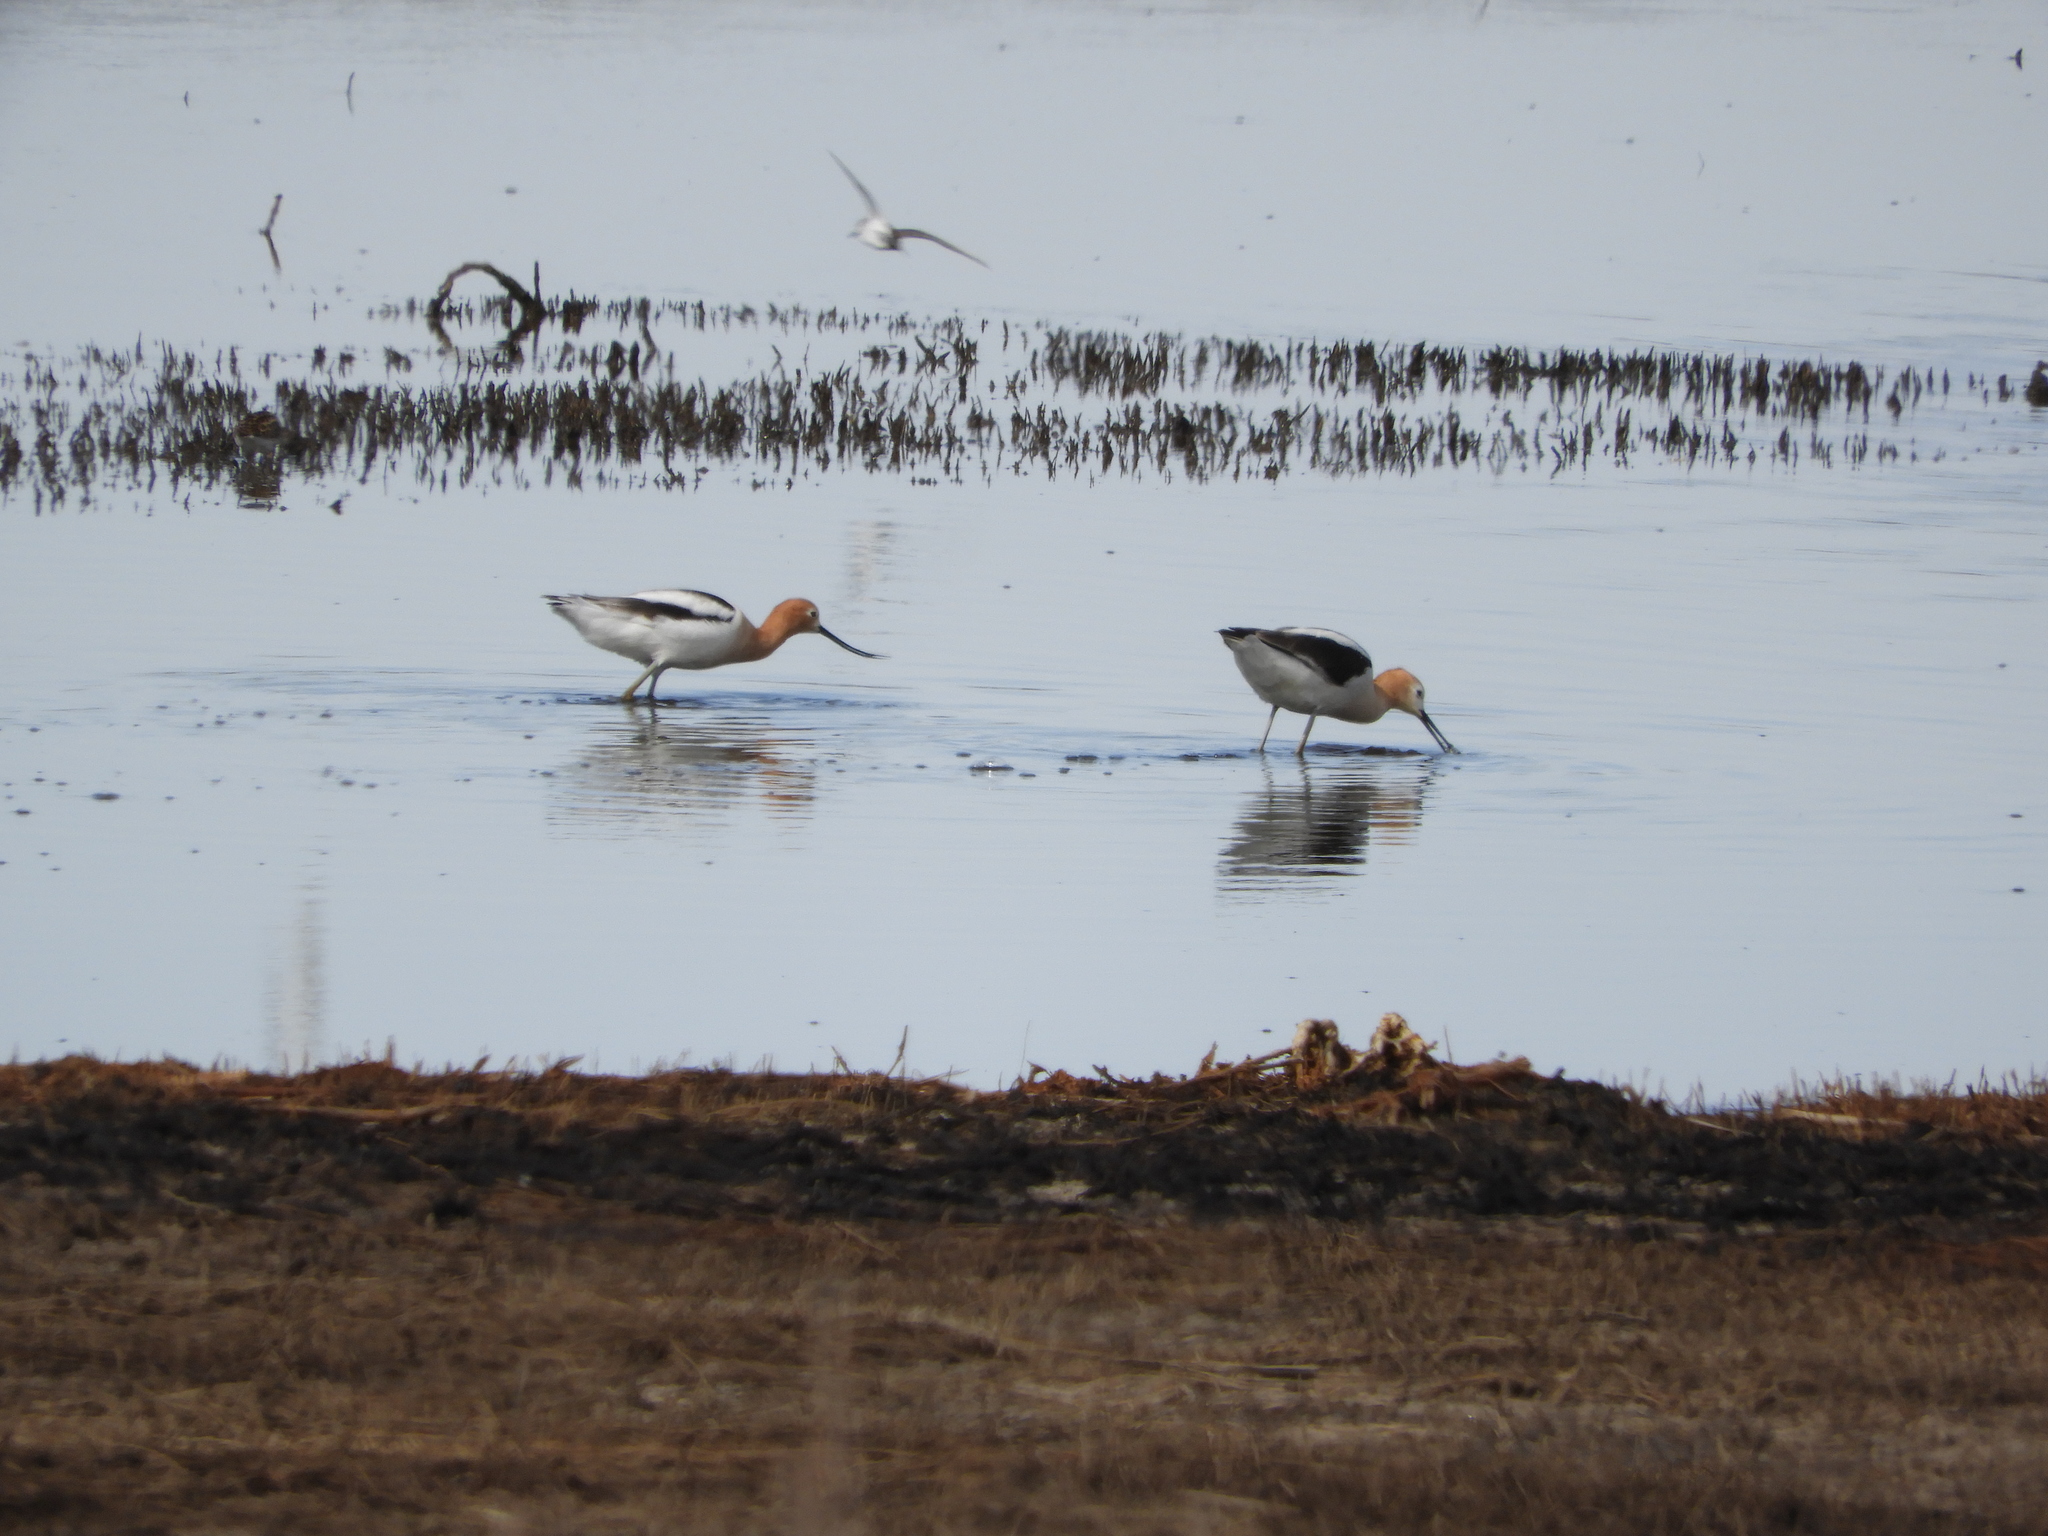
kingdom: Animalia
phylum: Chordata
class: Aves
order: Charadriiformes
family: Recurvirostridae
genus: Recurvirostra
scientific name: Recurvirostra americana
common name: American avocet
